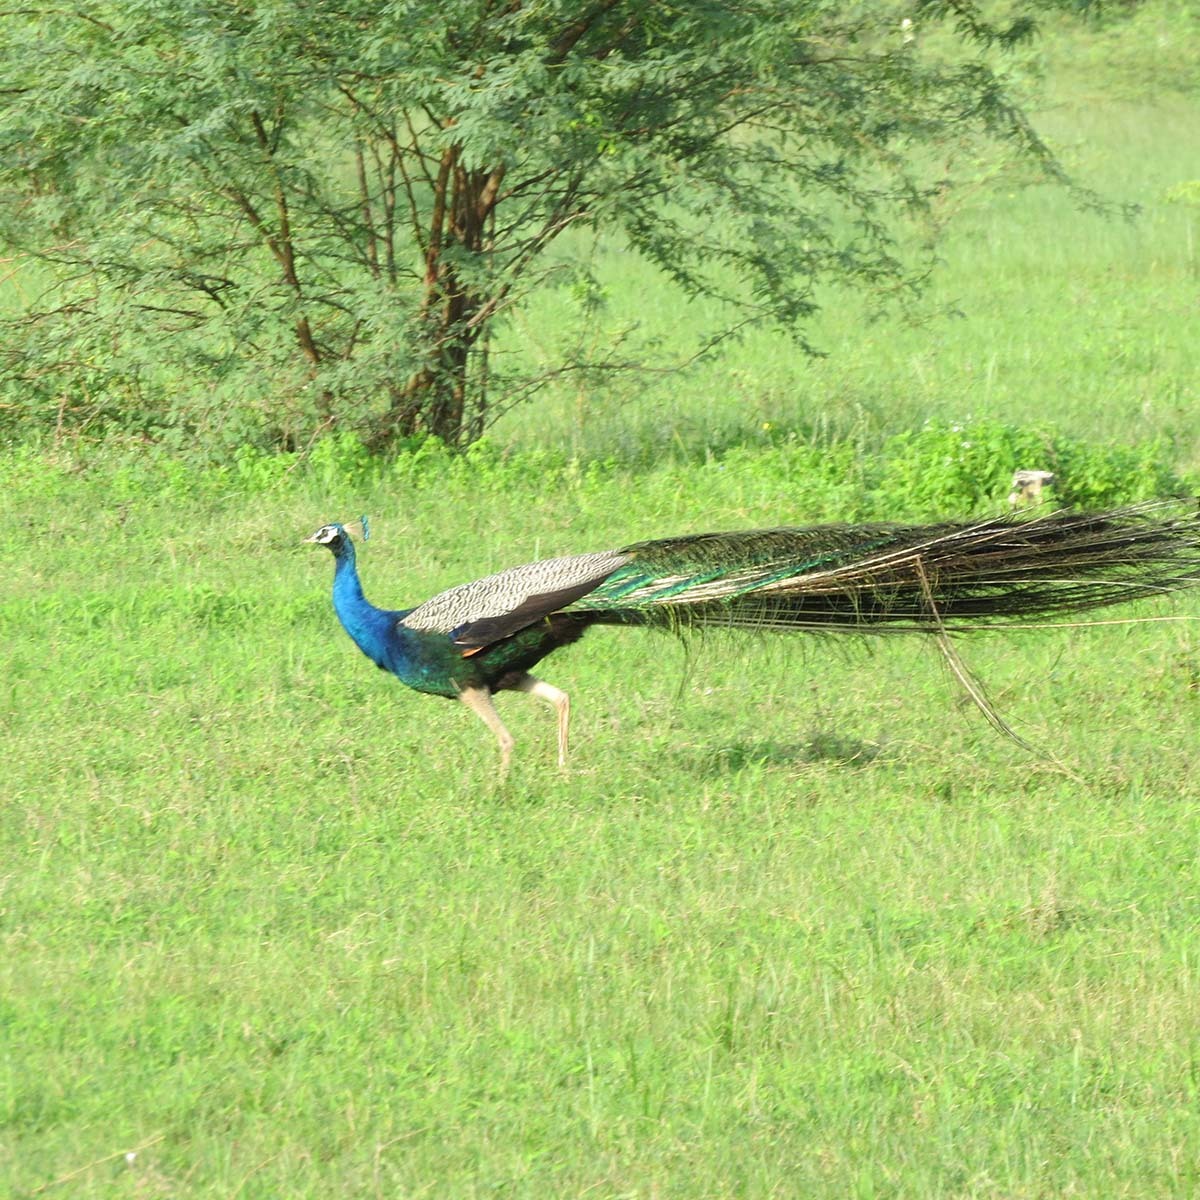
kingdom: Animalia
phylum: Chordata
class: Aves
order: Galliformes
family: Phasianidae
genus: Pavo
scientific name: Pavo cristatus
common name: Indian peafowl
